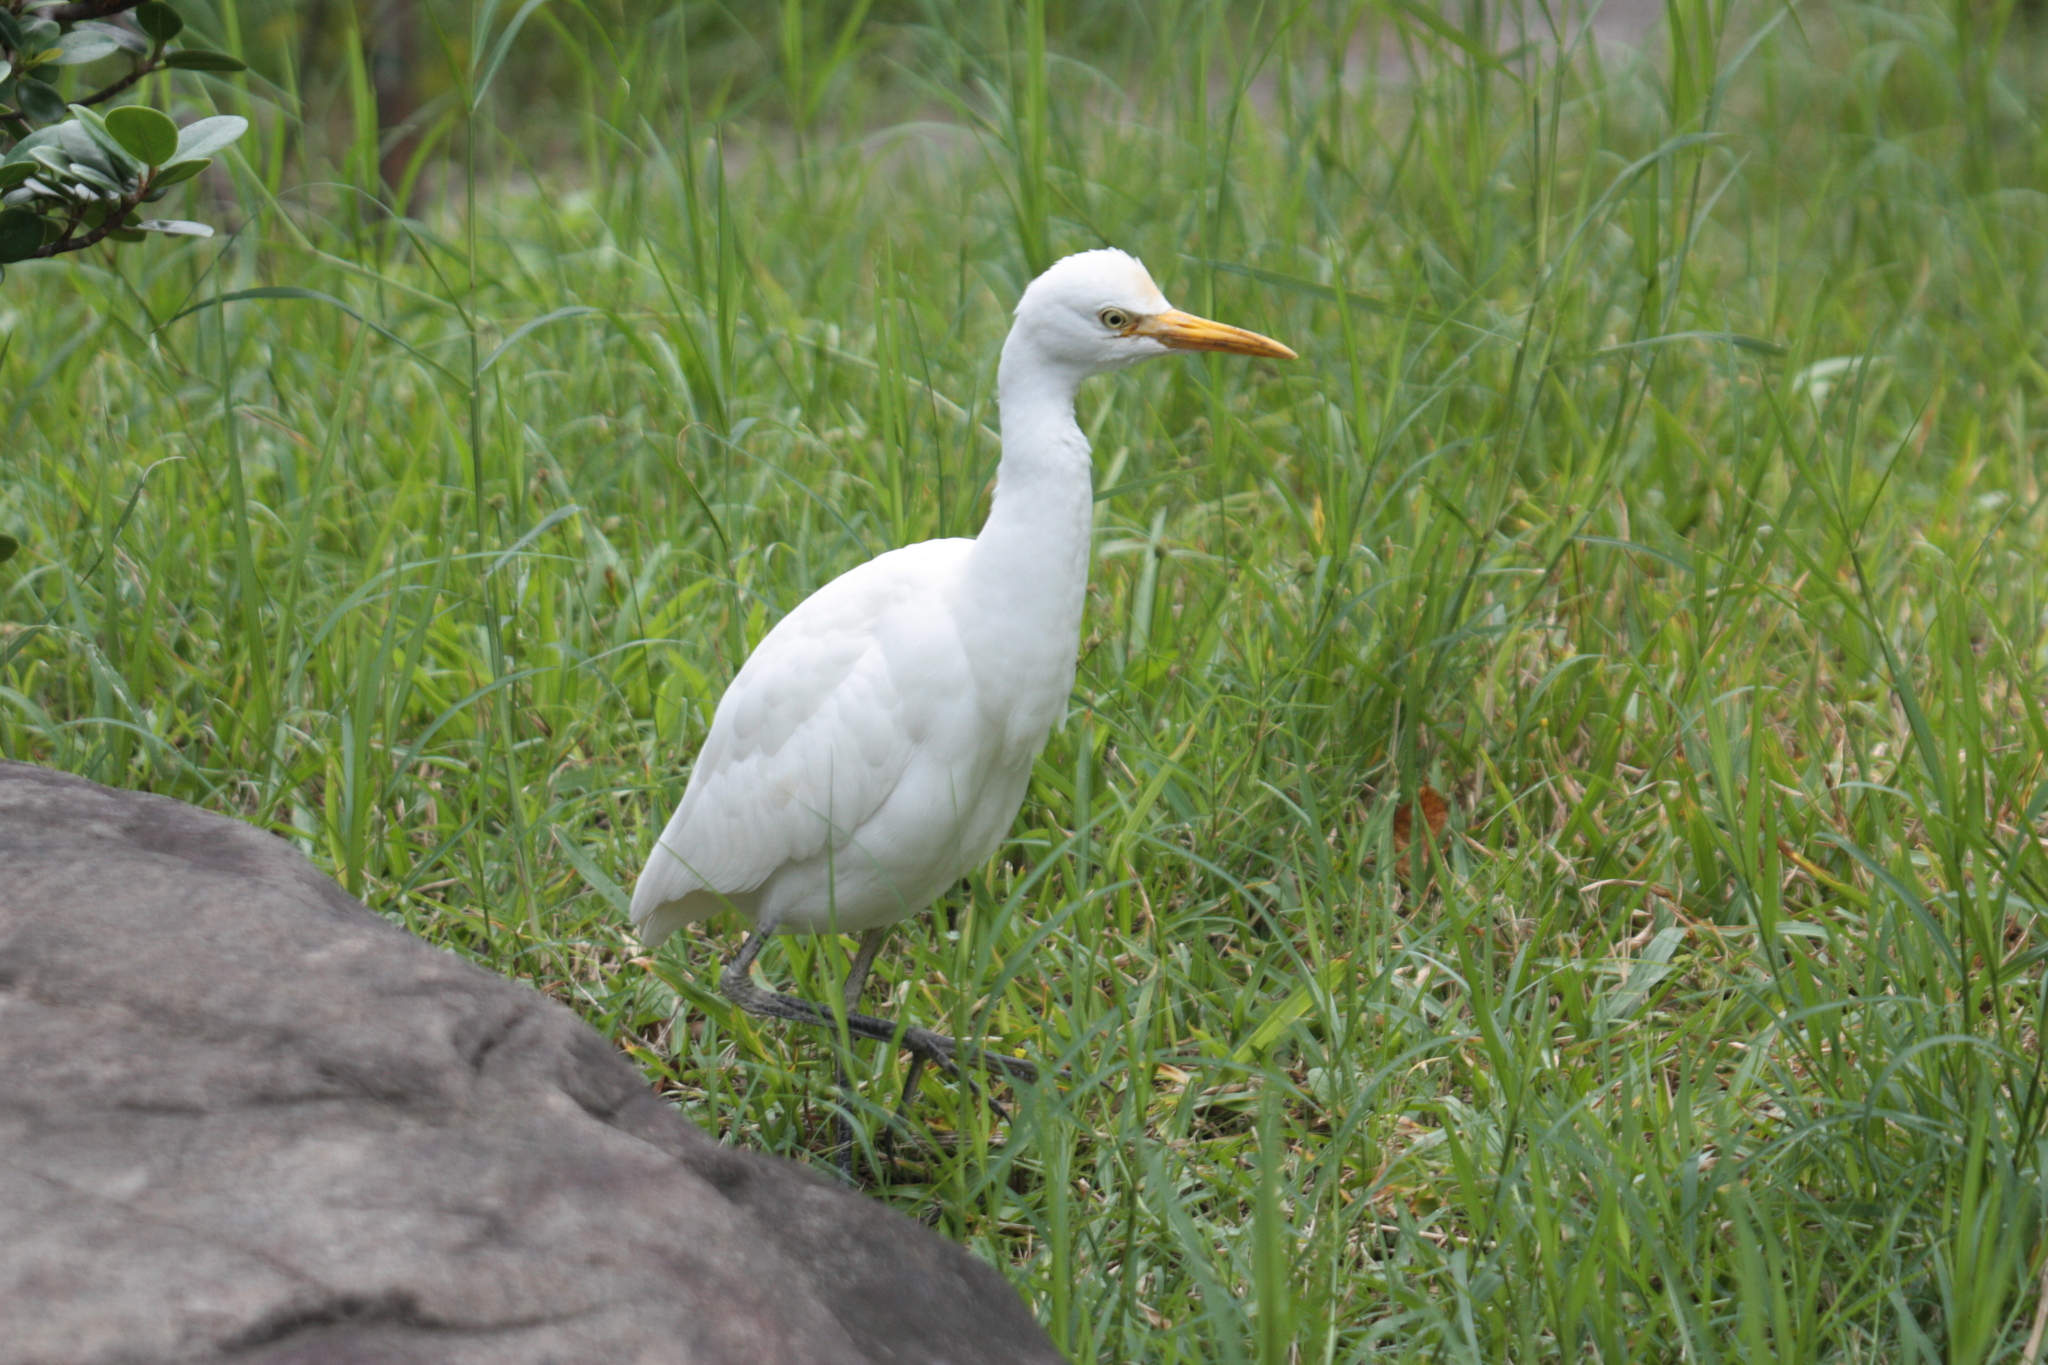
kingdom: Animalia
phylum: Chordata
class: Aves
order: Pelecaniformes
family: Ardeidae
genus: Bubulcus
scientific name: Bubulcus coromandus
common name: Eastern cattle egret
